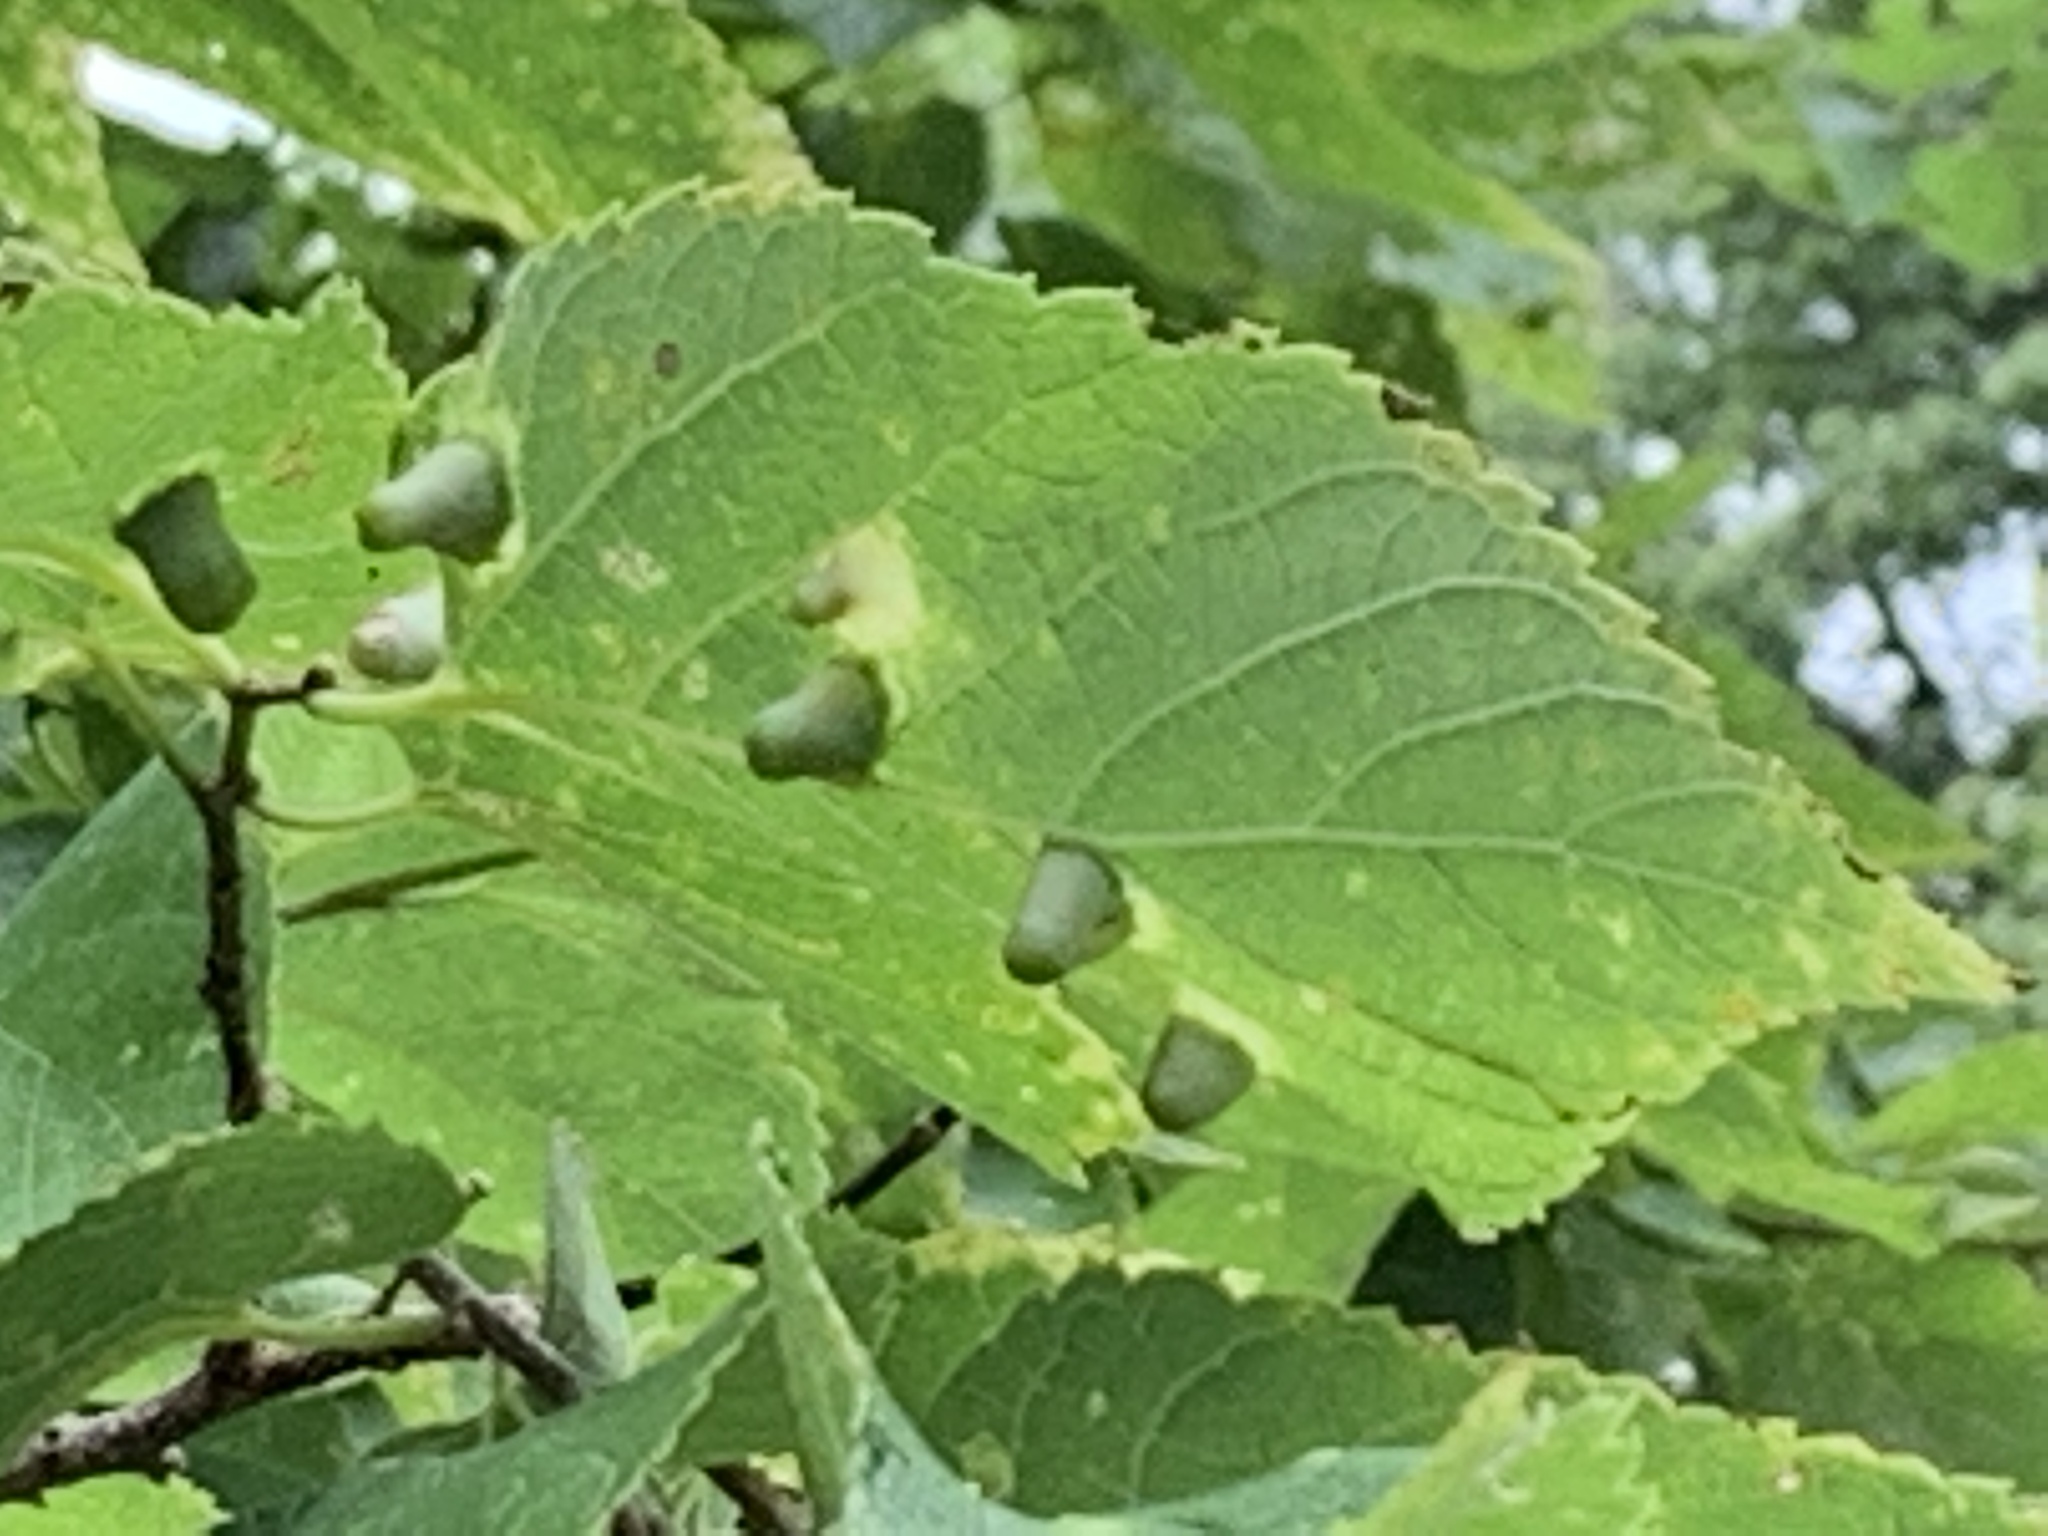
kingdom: Plantae
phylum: Tracheophyta
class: Magnoliopsida
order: Rosales
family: Cannabaceae
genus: Celtis
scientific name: Celtis occidentalis
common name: Common hackberry
